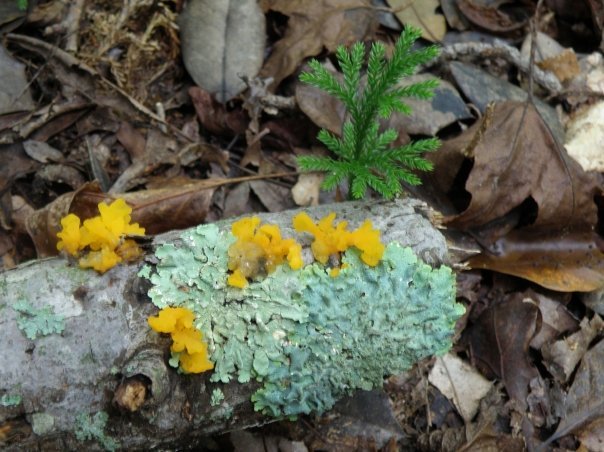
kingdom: Fungi
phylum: Basidiomycota
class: Tremellomycetes
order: Tremellales
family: Tremellaceae
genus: Tremella
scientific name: Tremella mesenterica
